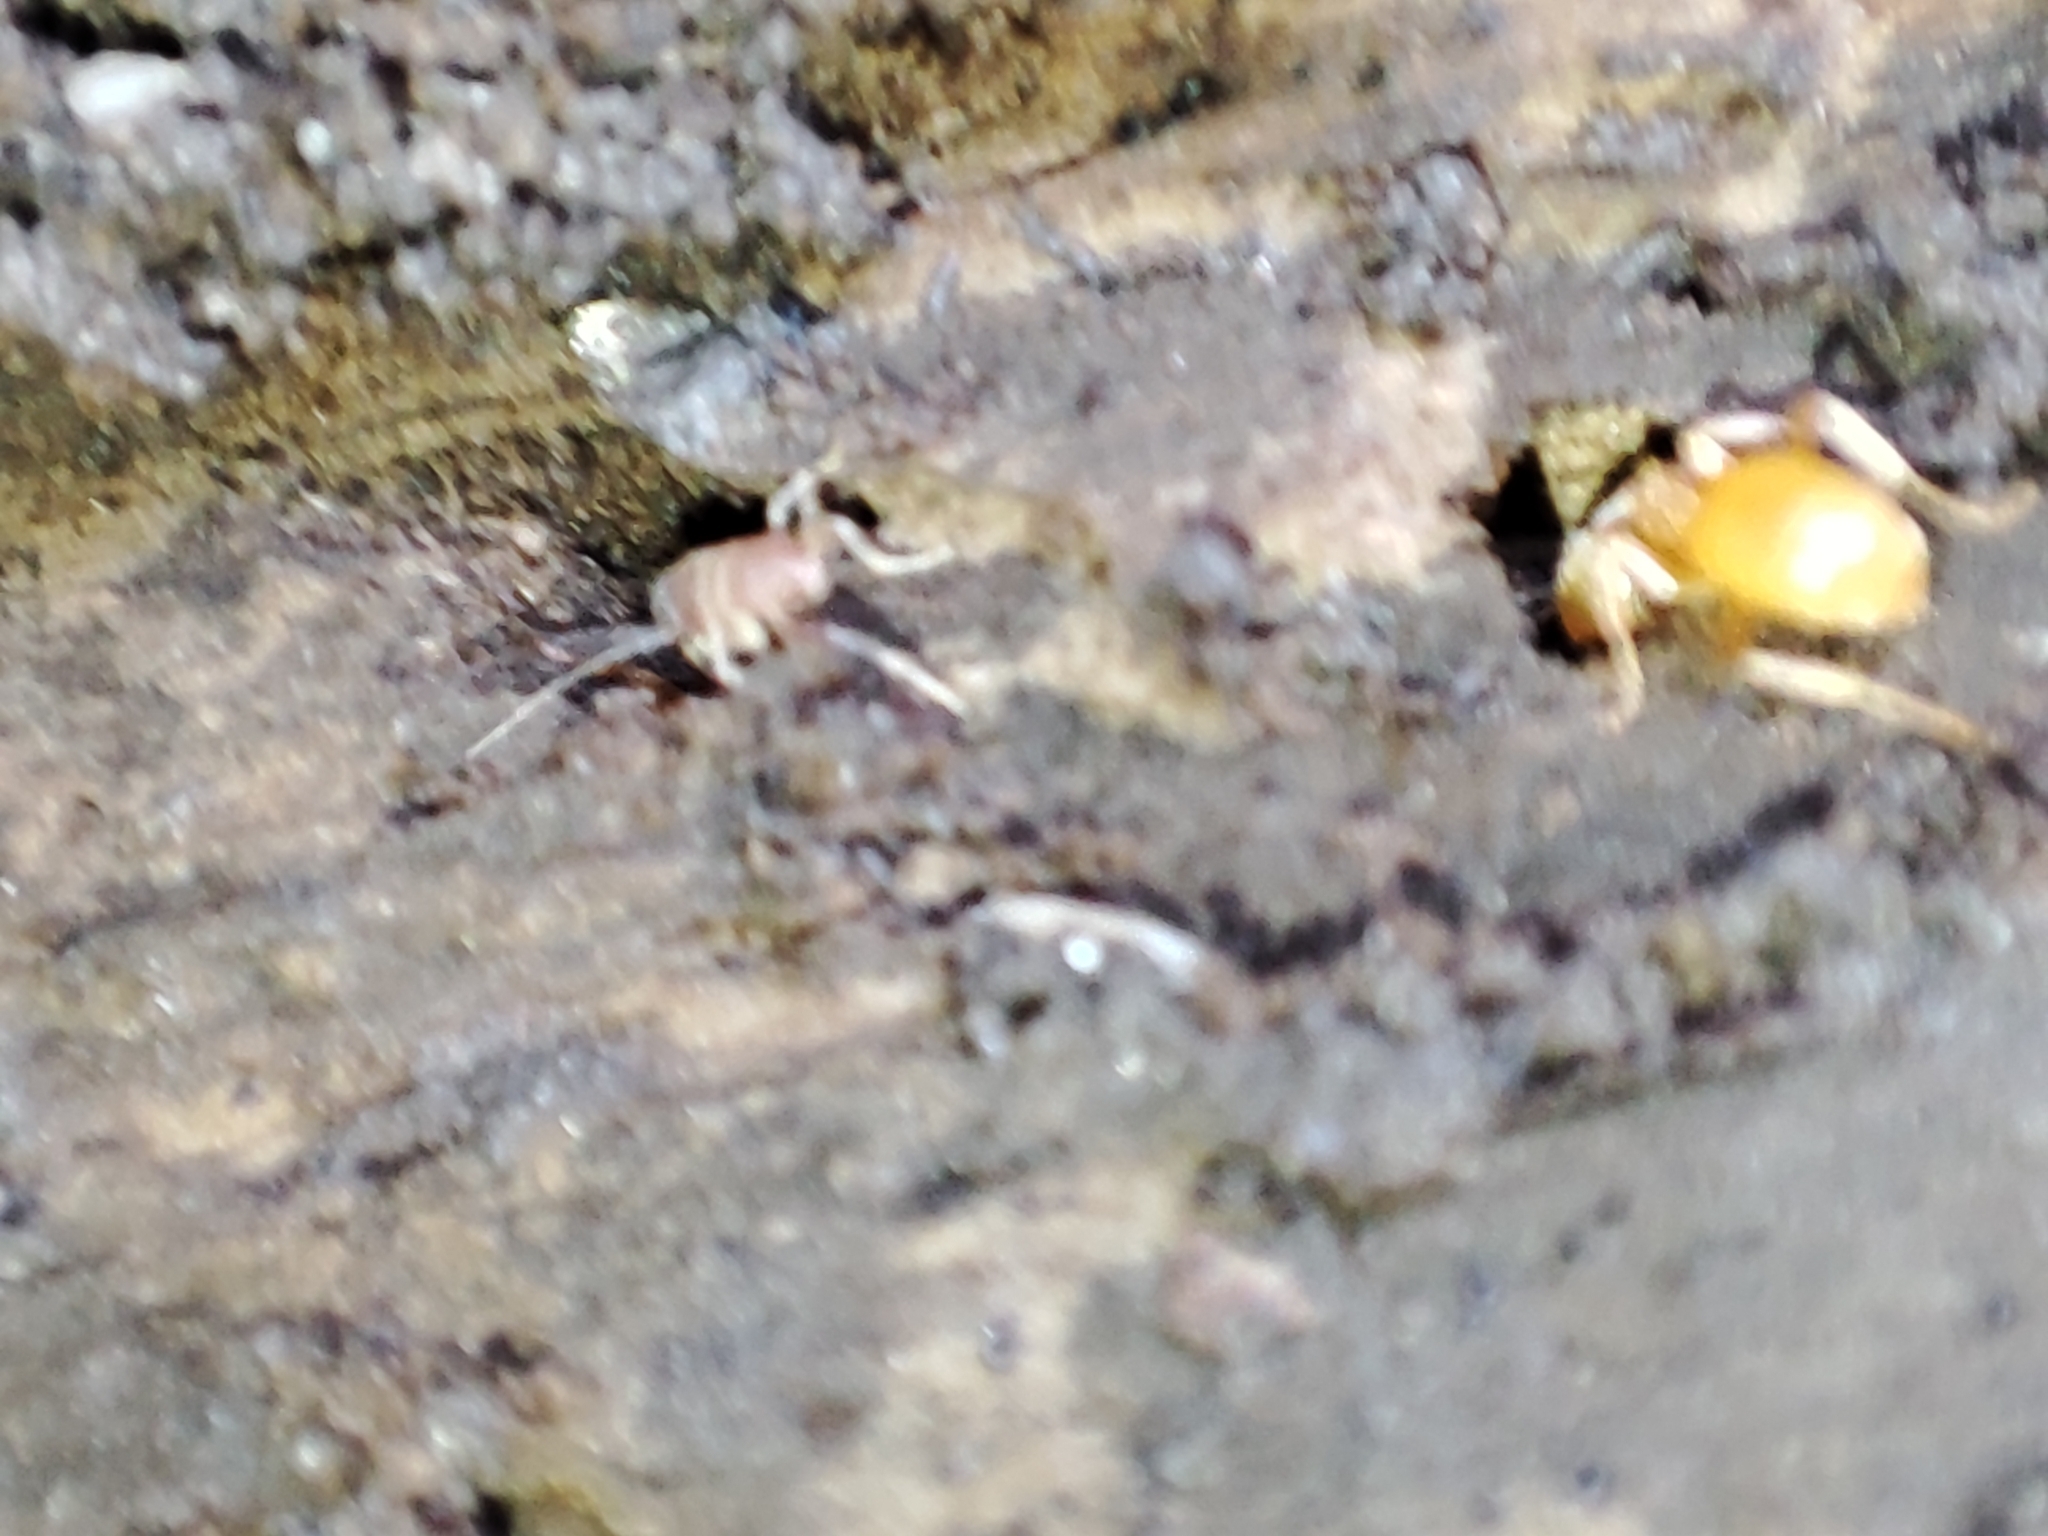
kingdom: Animalia
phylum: Arthropoda
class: Insecta
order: Hymenoptera
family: Formicidae
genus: Lasius
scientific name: Lasius flavus
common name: Blond field ant
